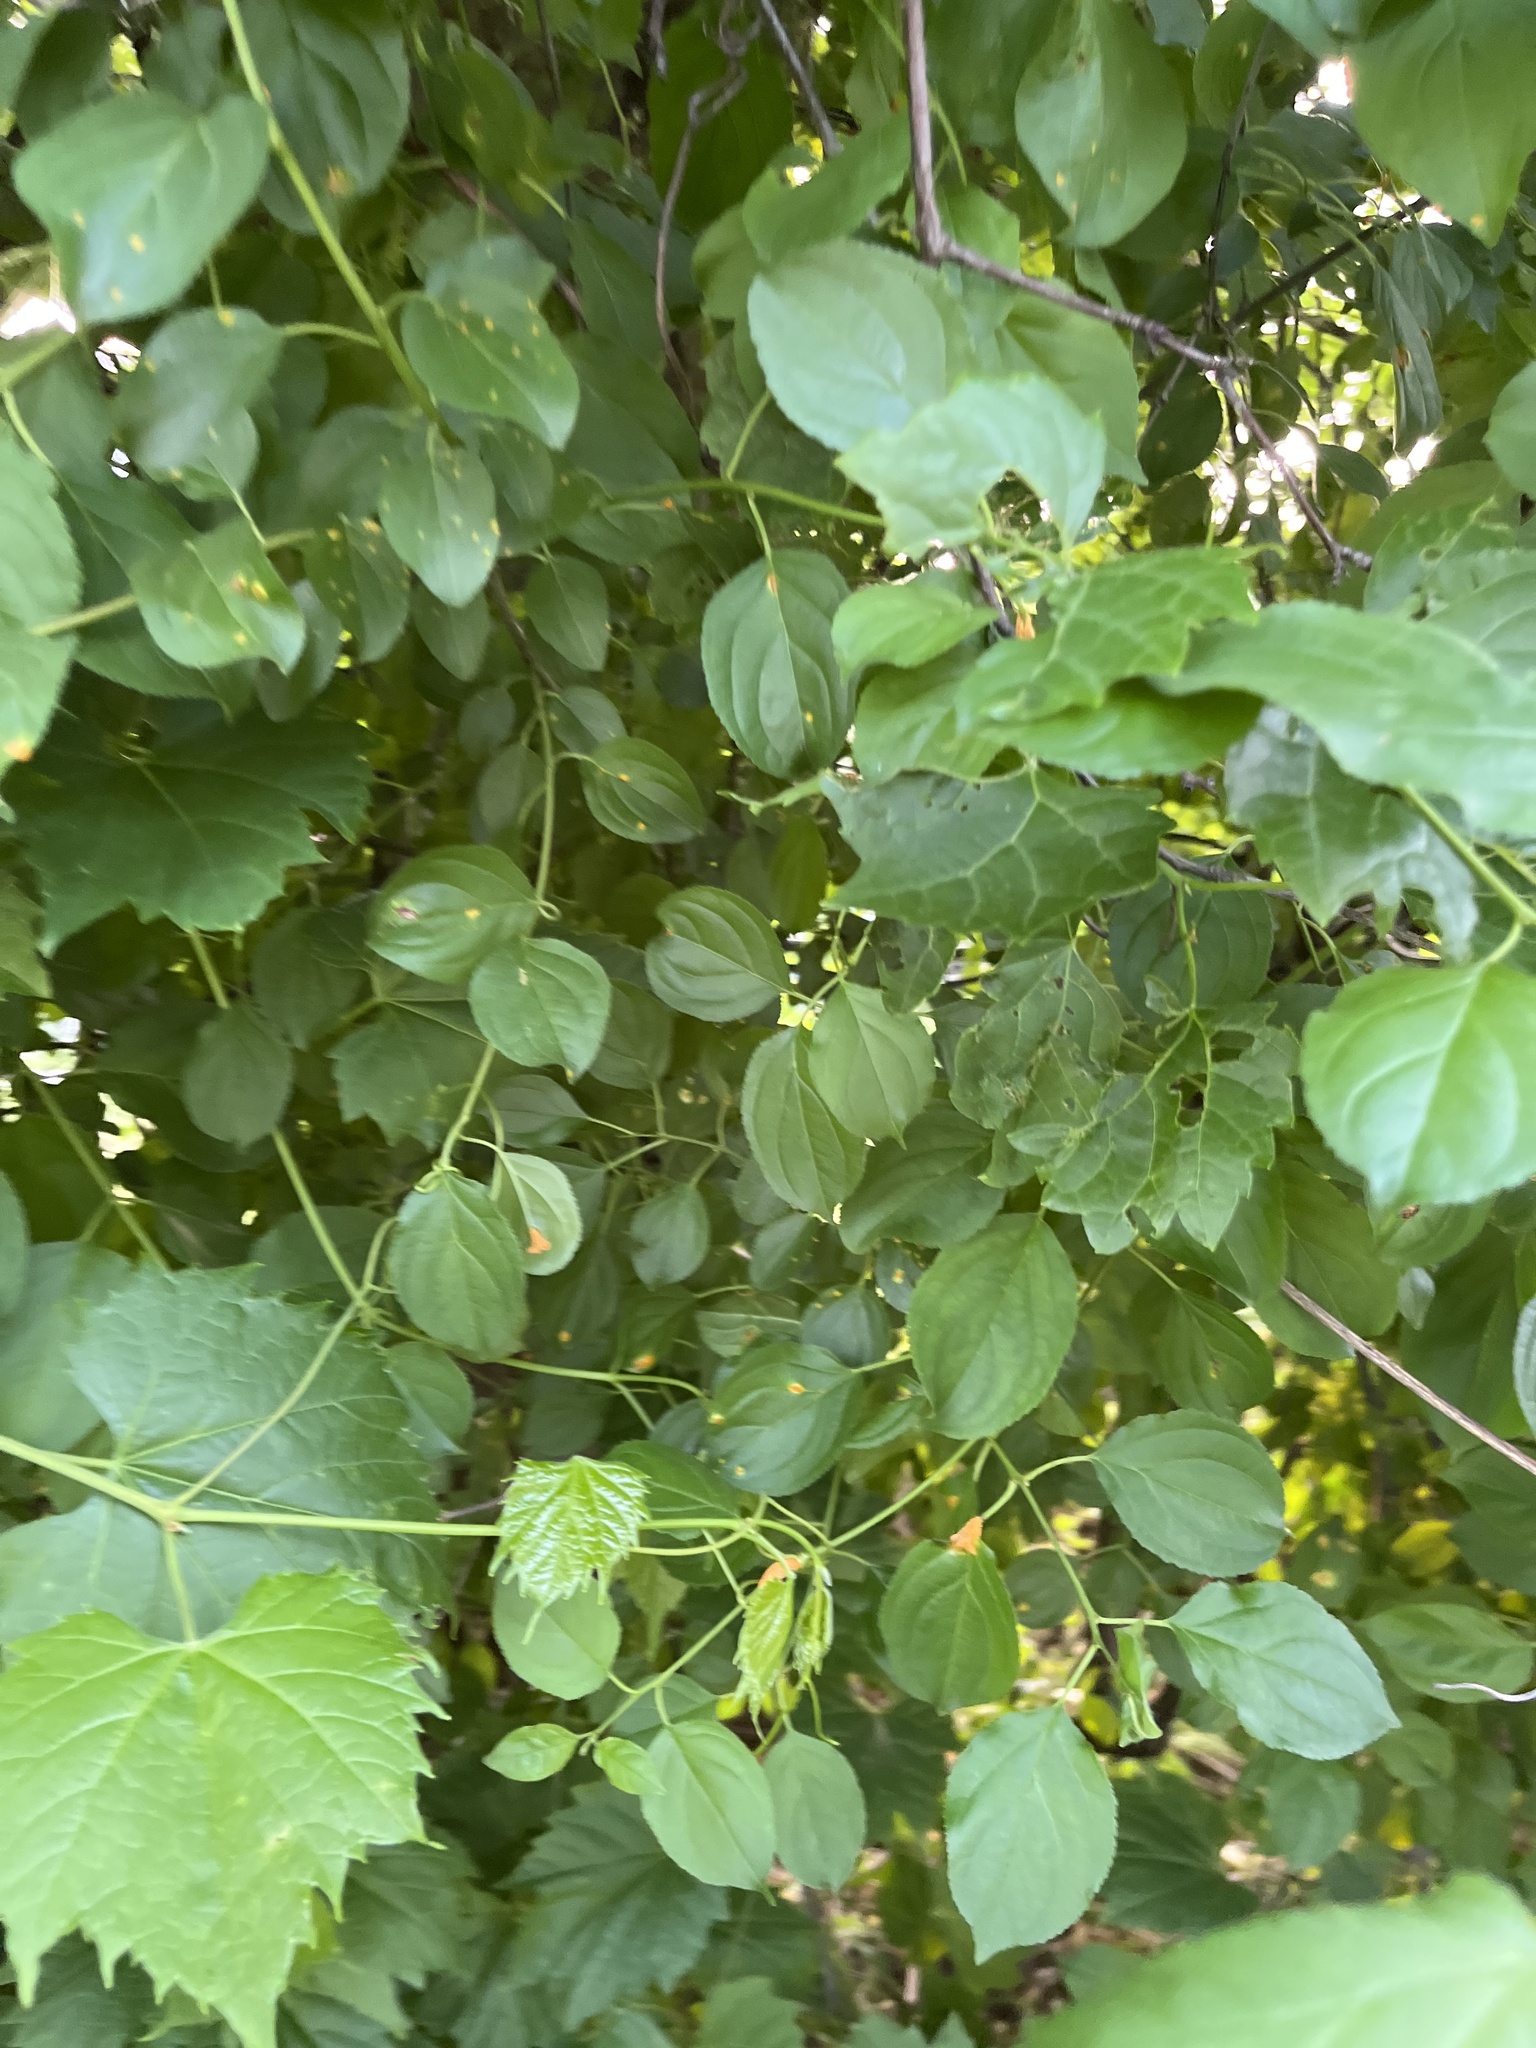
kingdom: Plantae
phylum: Tracheophyta
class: Magnoliopsida
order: Rosales
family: Rhamnaceae
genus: Rhamnus
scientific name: Rhamnus cathartica
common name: Common buckthorn
